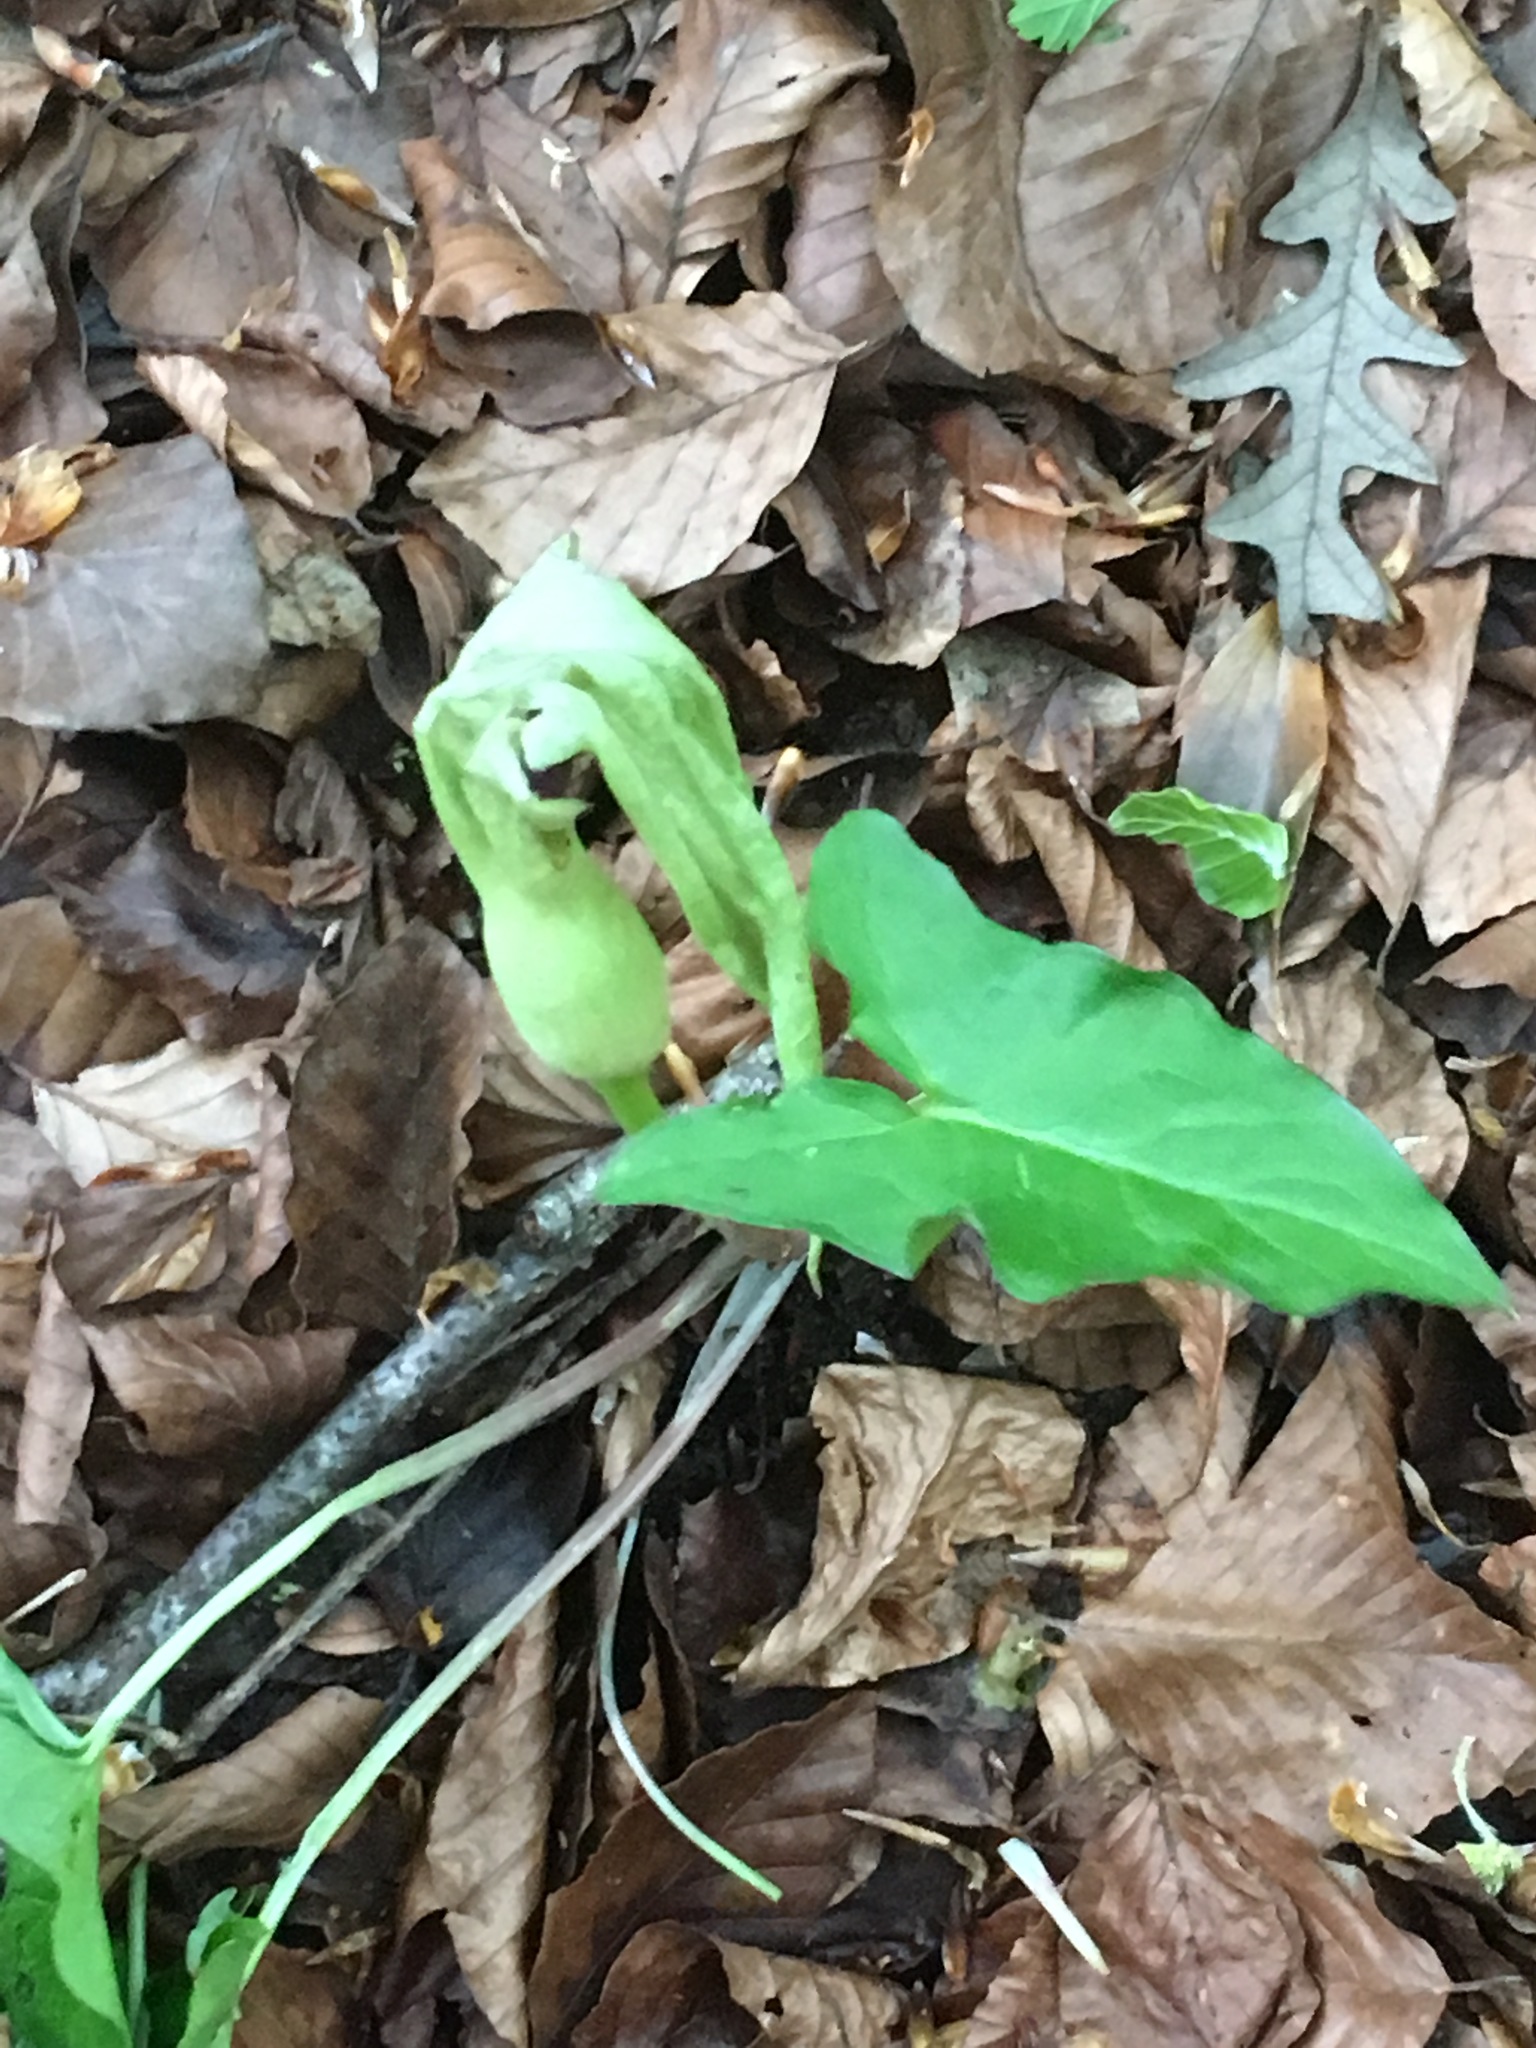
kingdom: Plantae
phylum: Tracheophyta
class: Liliopsida
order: Alismatales
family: Araceae
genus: Arum
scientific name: Arum maculatum
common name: Lords-and-ladies
